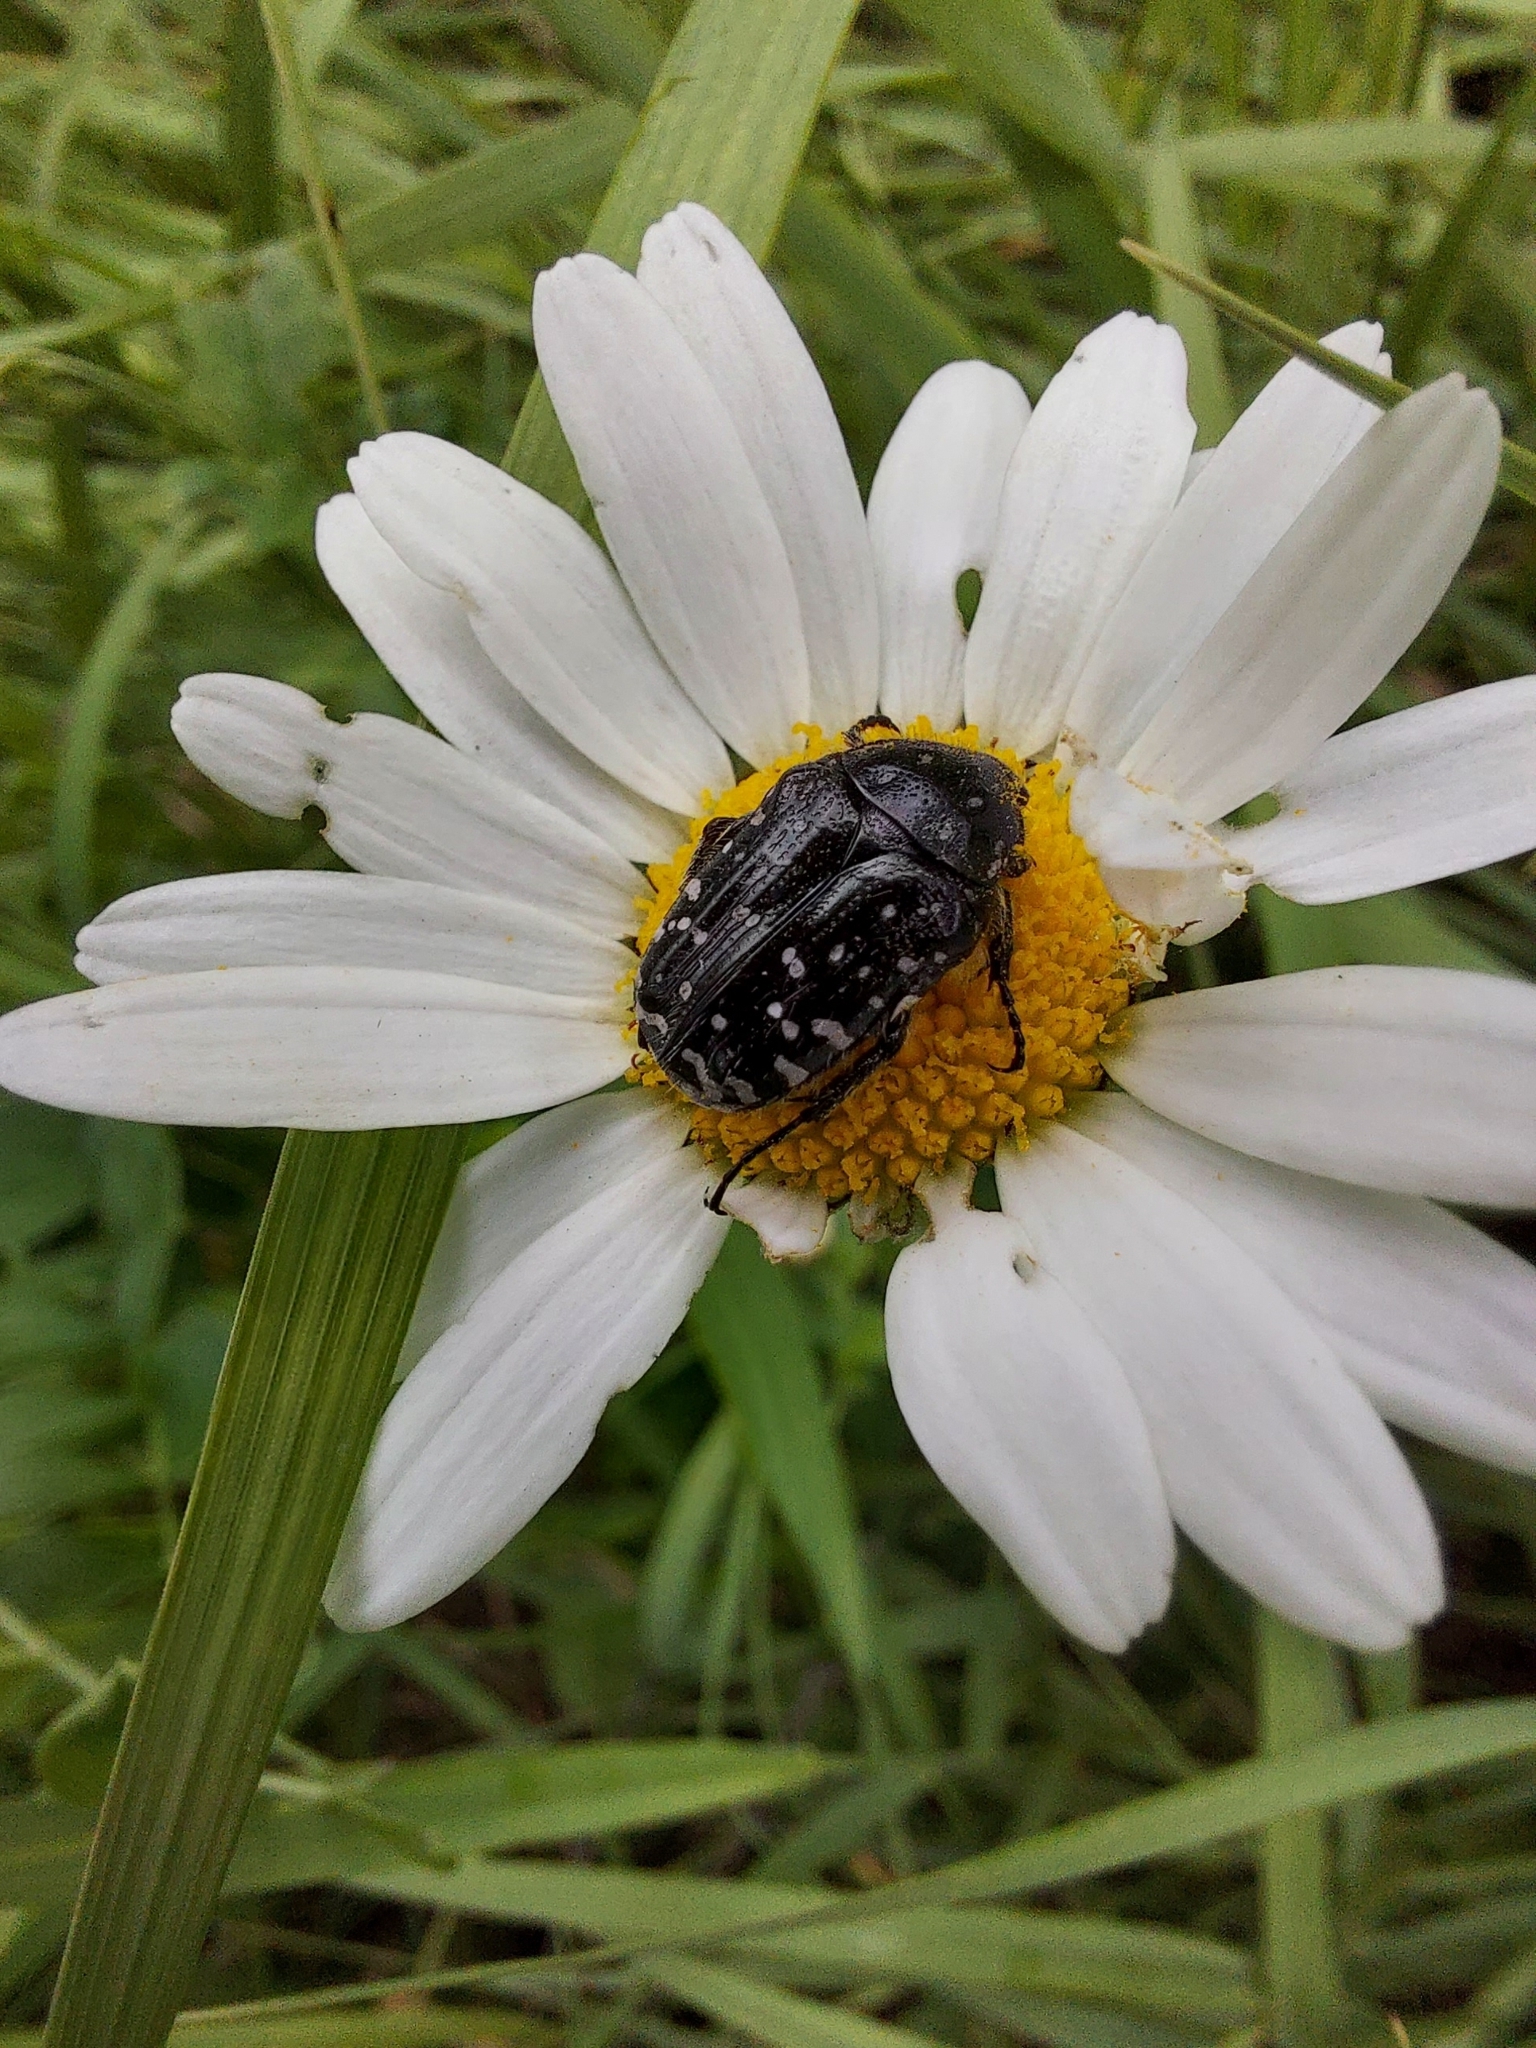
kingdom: Animalia
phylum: Arthropoda
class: Insecta
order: Coleoptera
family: Scarabaeidae
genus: Oxythyrea
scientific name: Oxythyrea funesta
